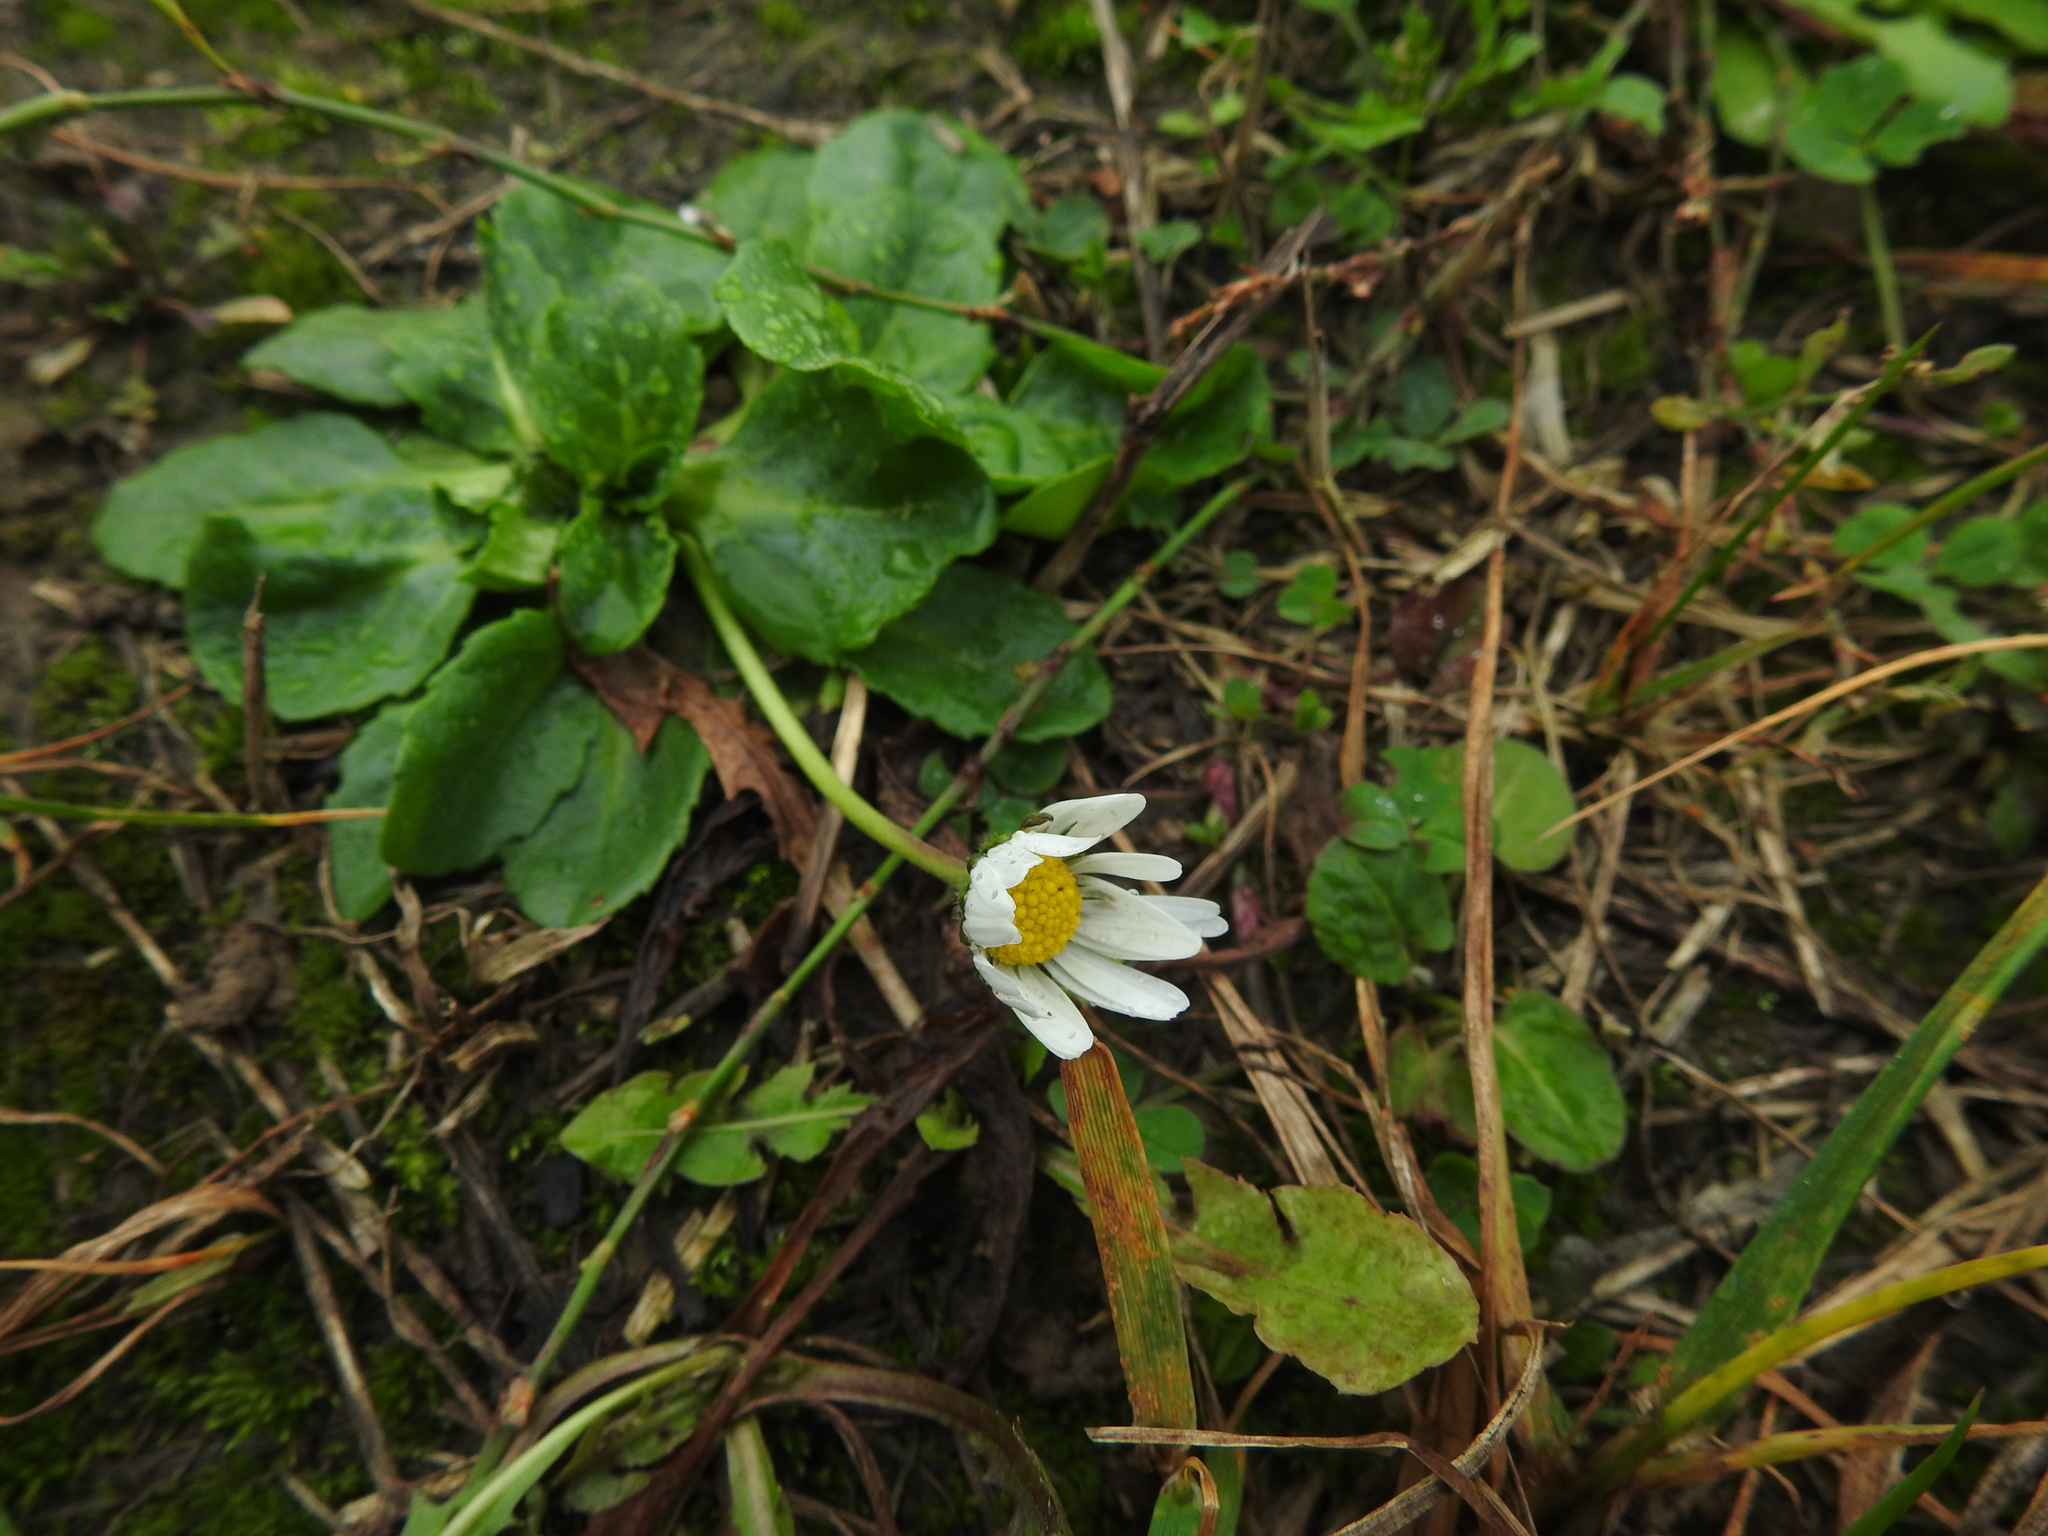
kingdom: Plantae
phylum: Tracheophyta
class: Magnoliopsida
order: Asterales
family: Asteraceae
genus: Bellis
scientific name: Bellis perennis
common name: Lawndaisy
